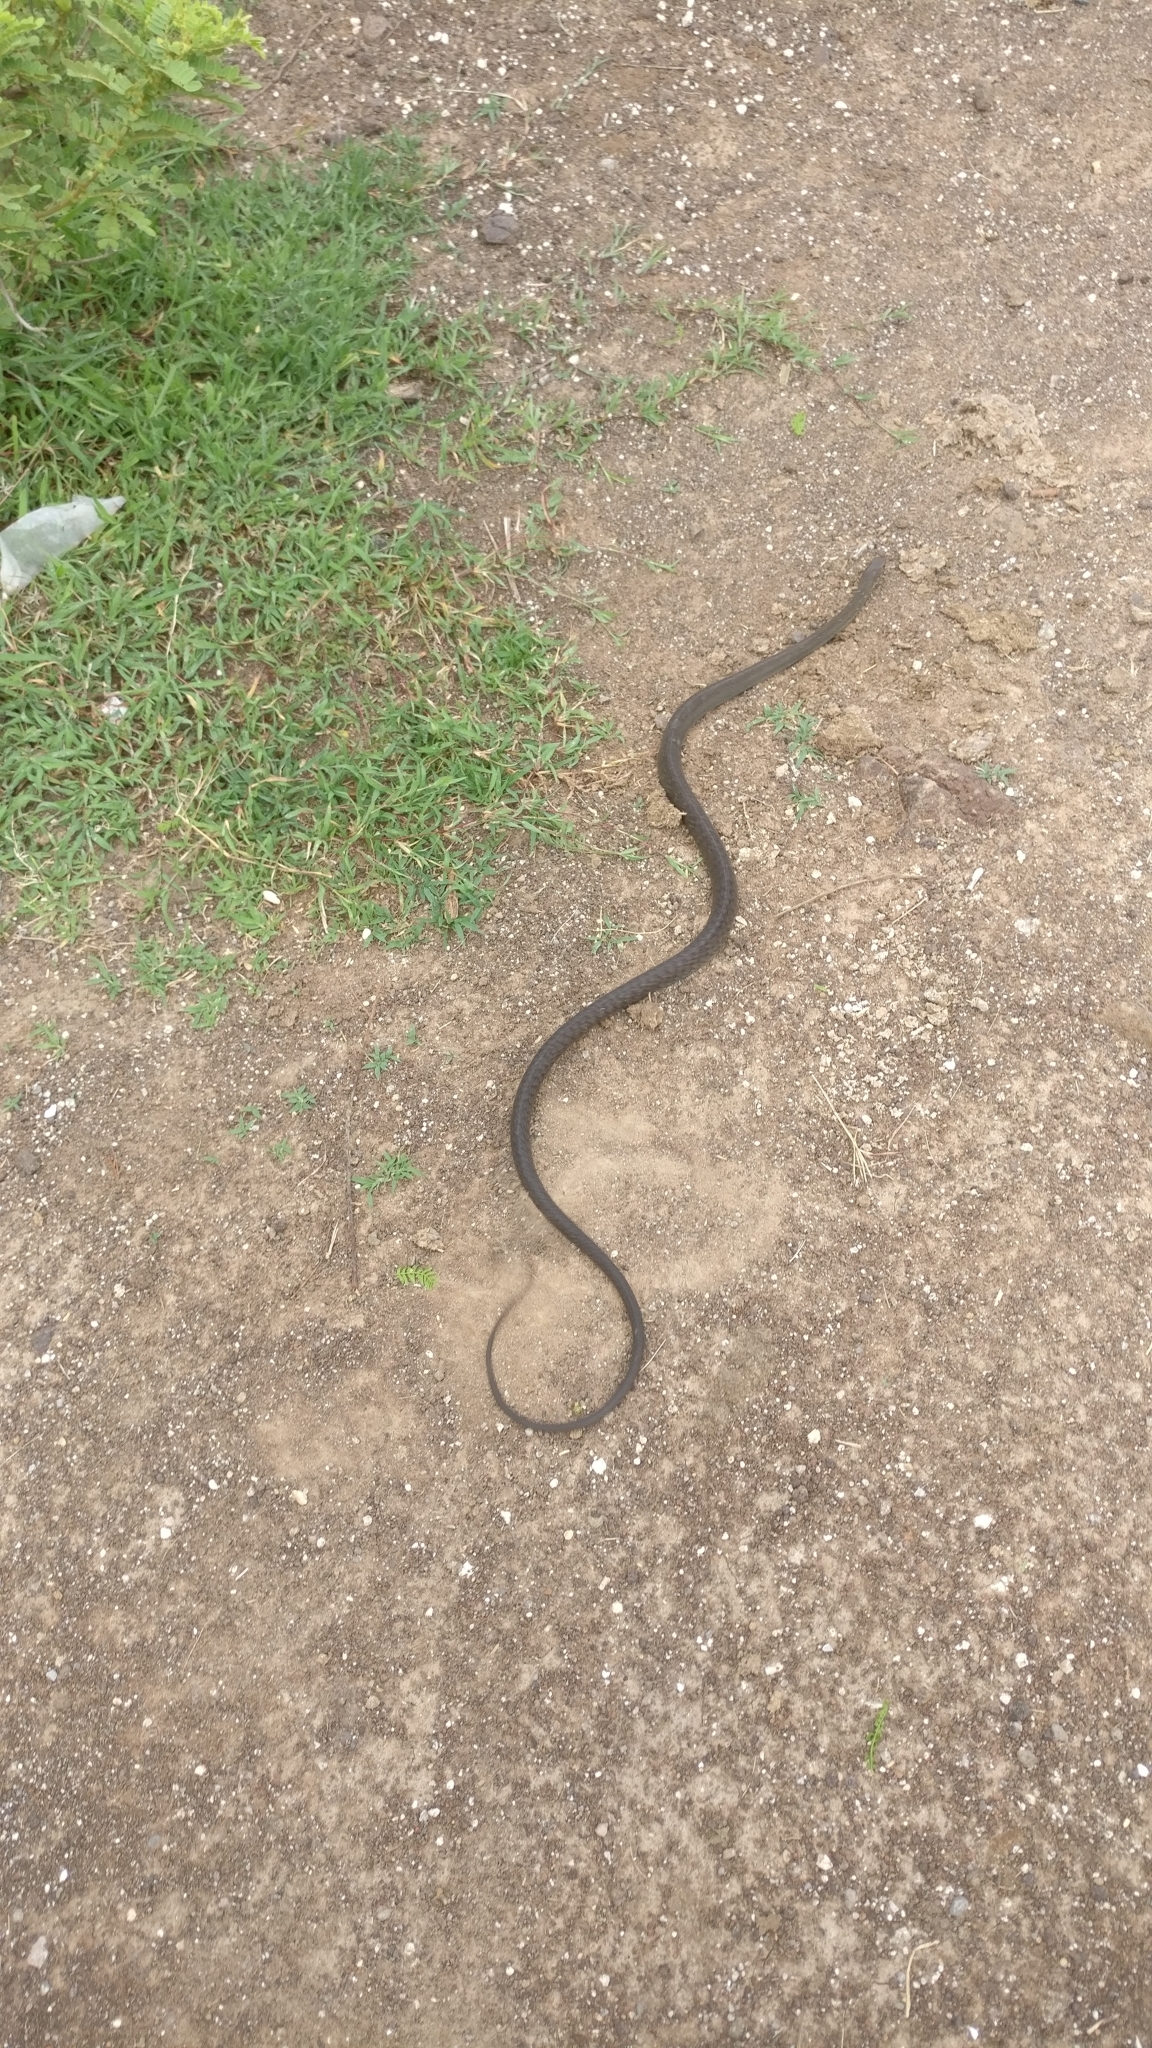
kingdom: Animalia
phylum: Chordata
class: Squamata
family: Colubridae
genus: Ptyas
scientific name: Ptyas mucosa
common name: Oriental ratsnake
